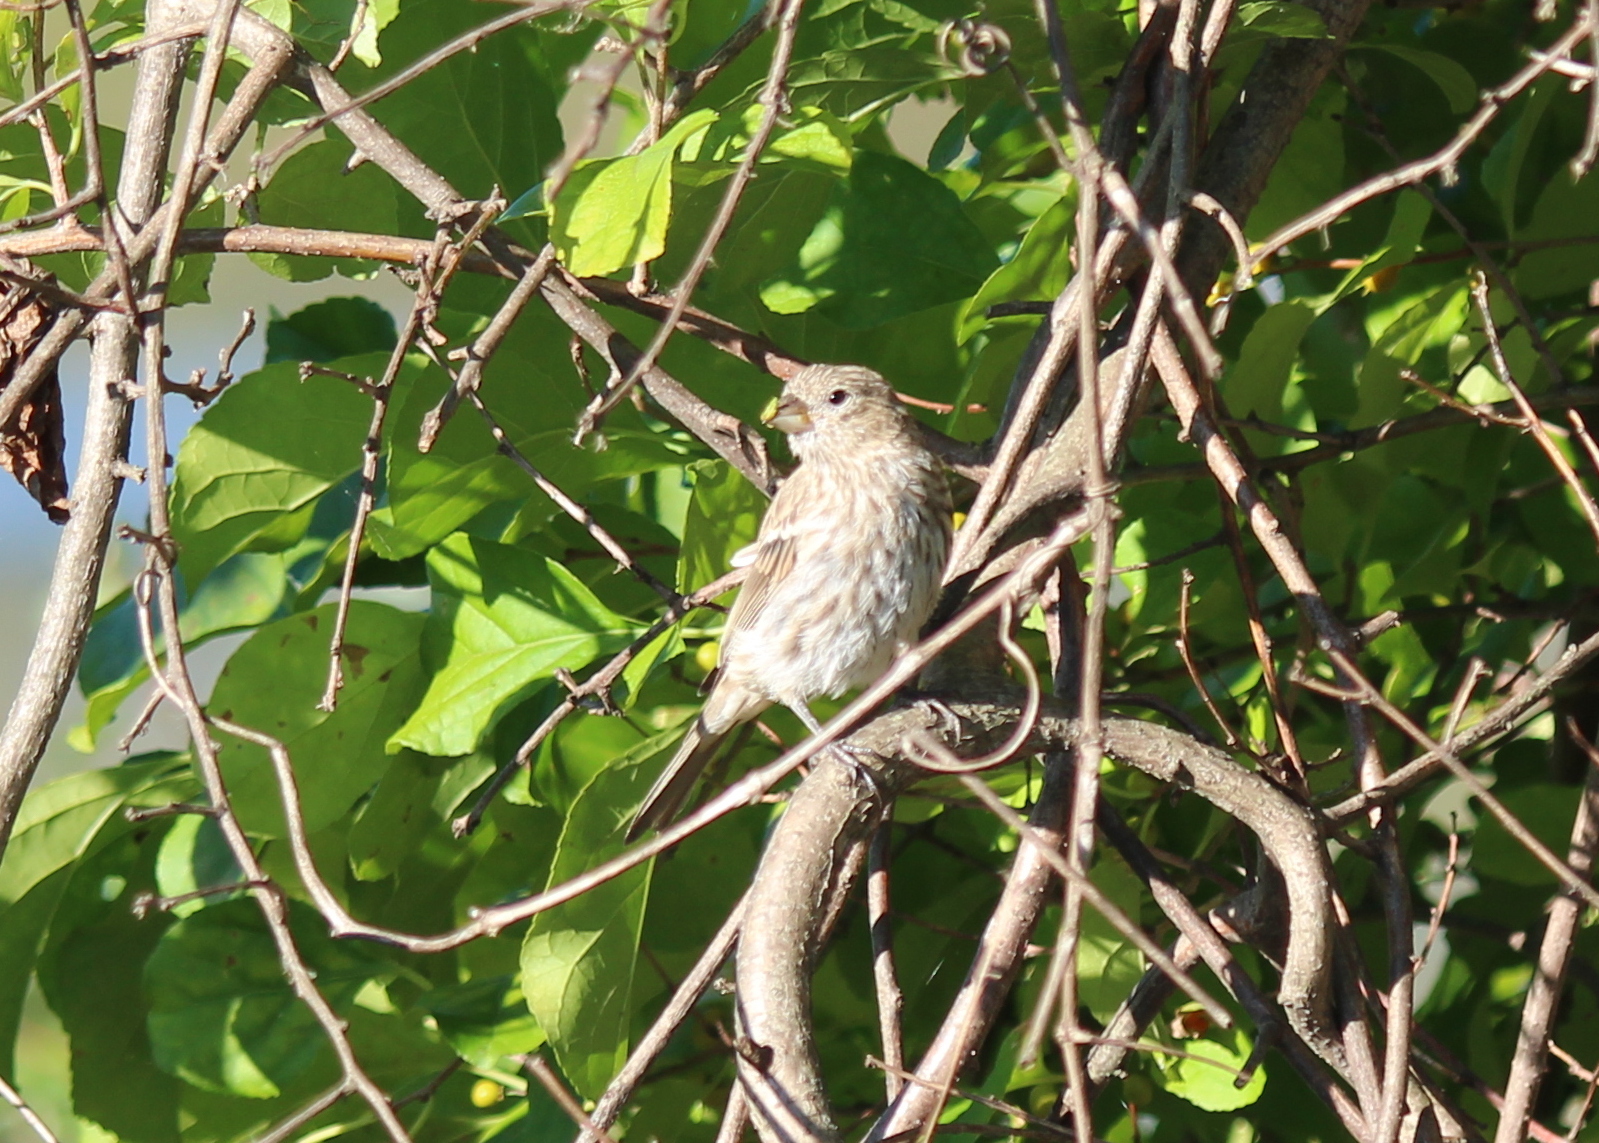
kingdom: Animalia
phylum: Chordata
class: Aves
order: Passeriformes
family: Fringillidae
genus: Haemorhous
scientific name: Haemorhous mexicanus
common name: House finch
